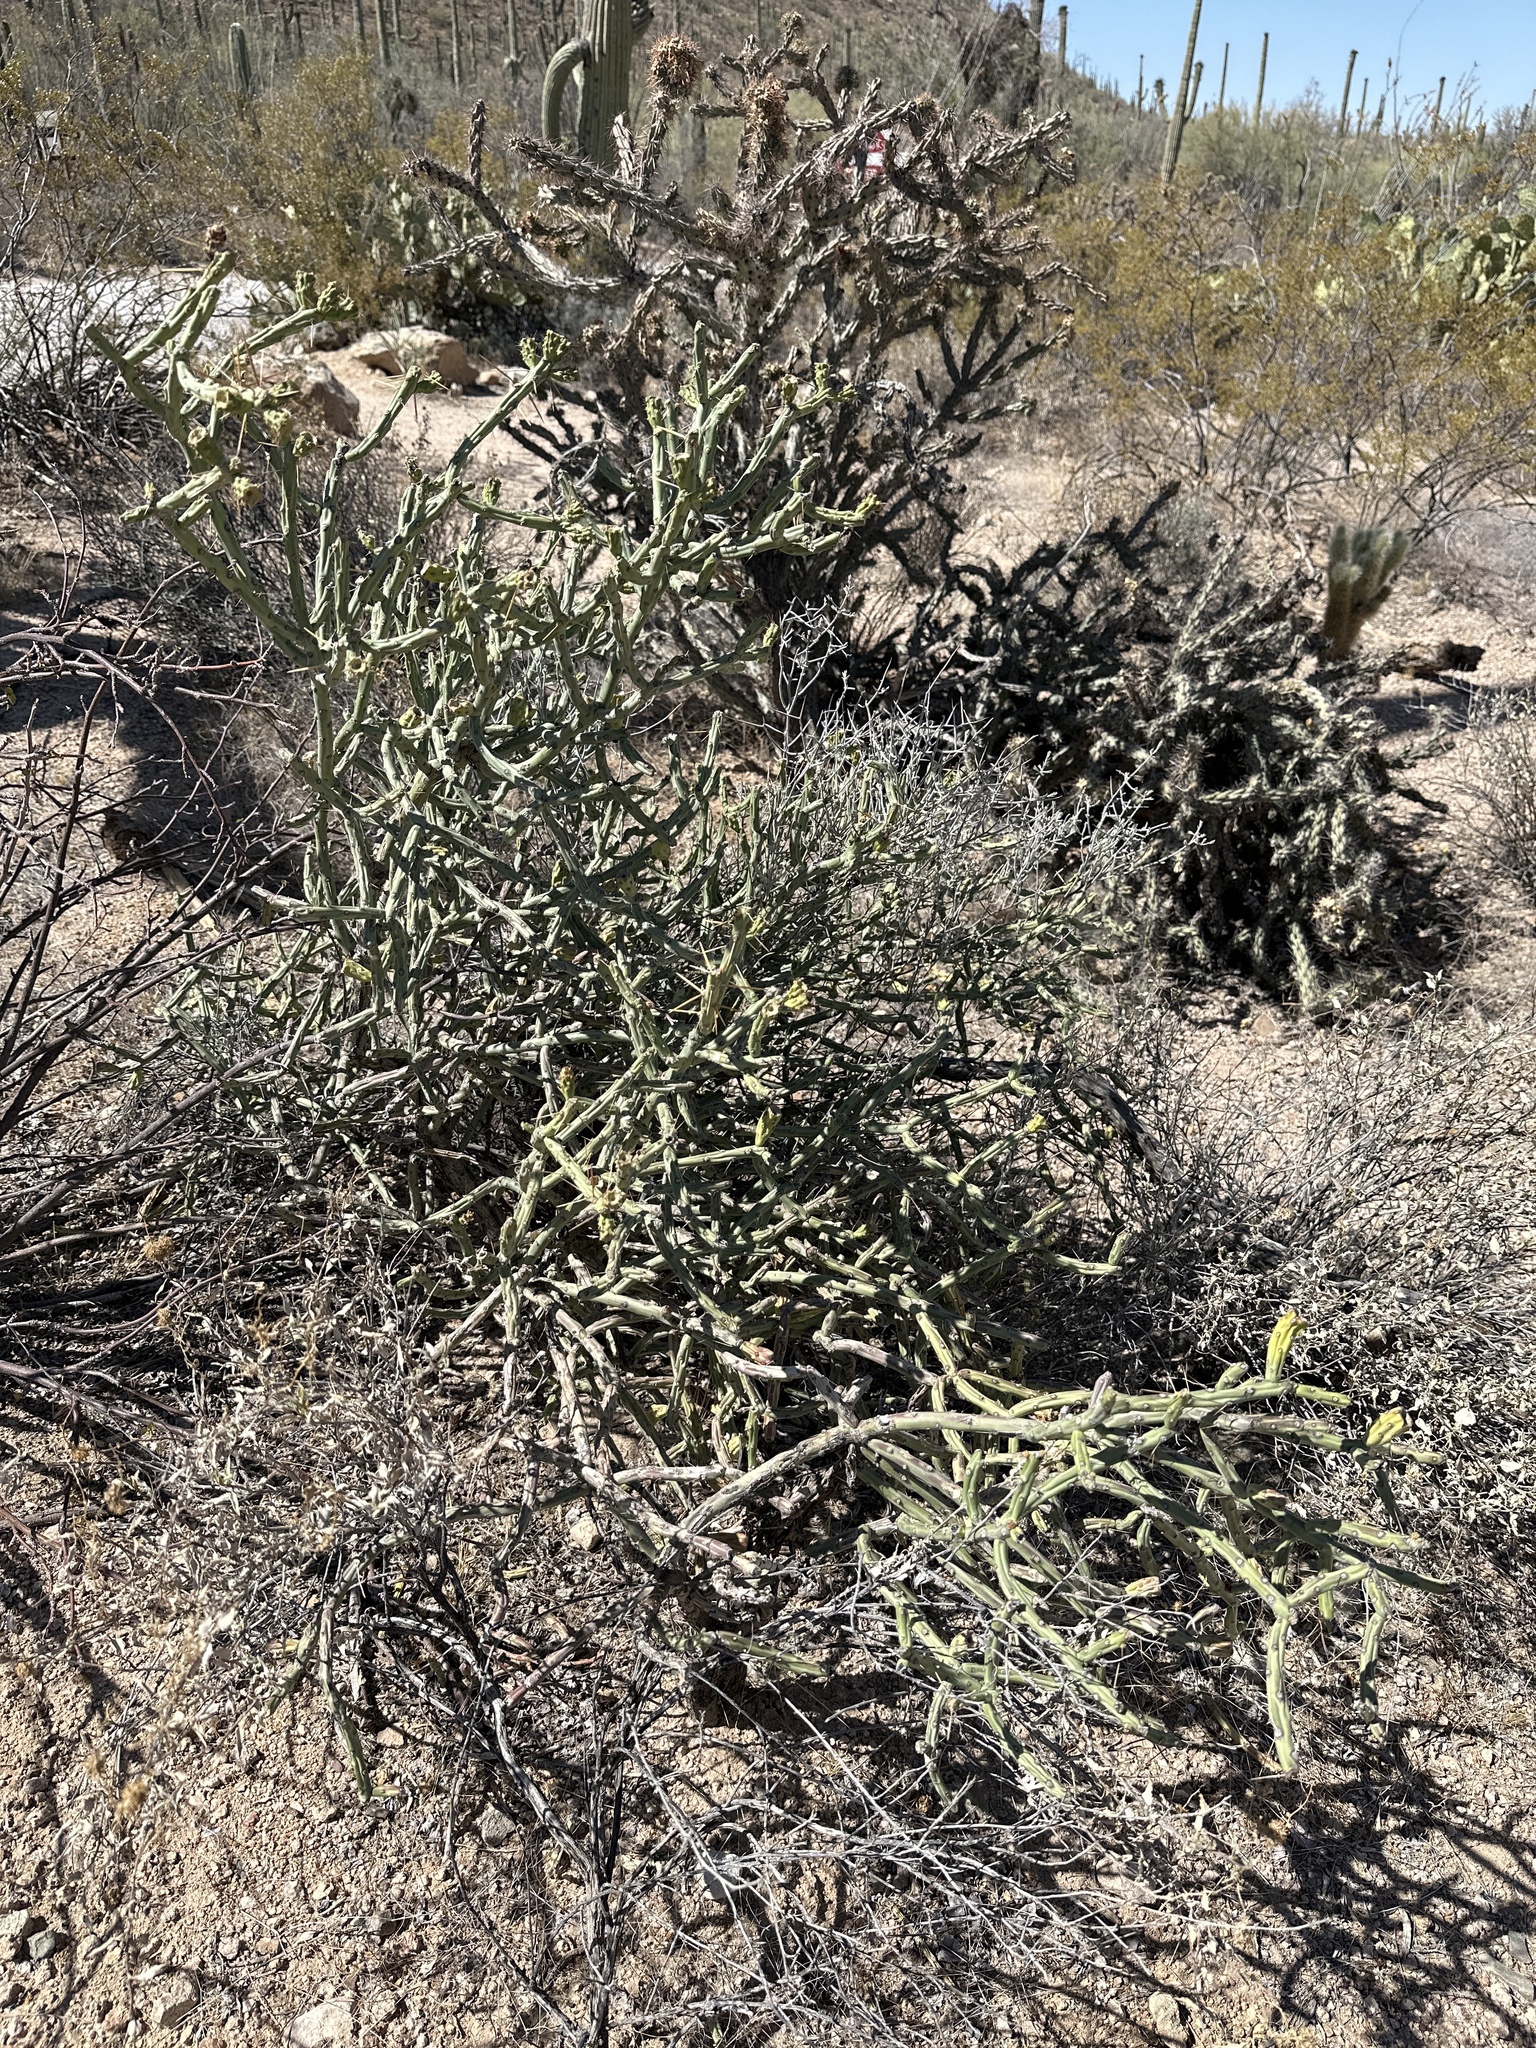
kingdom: Plantae
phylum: Tracheophyta
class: Magnoliopsida
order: Caryophyllales
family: Cactaceae
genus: Cylindropuntia
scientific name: Cylindropuntia arbuscula
